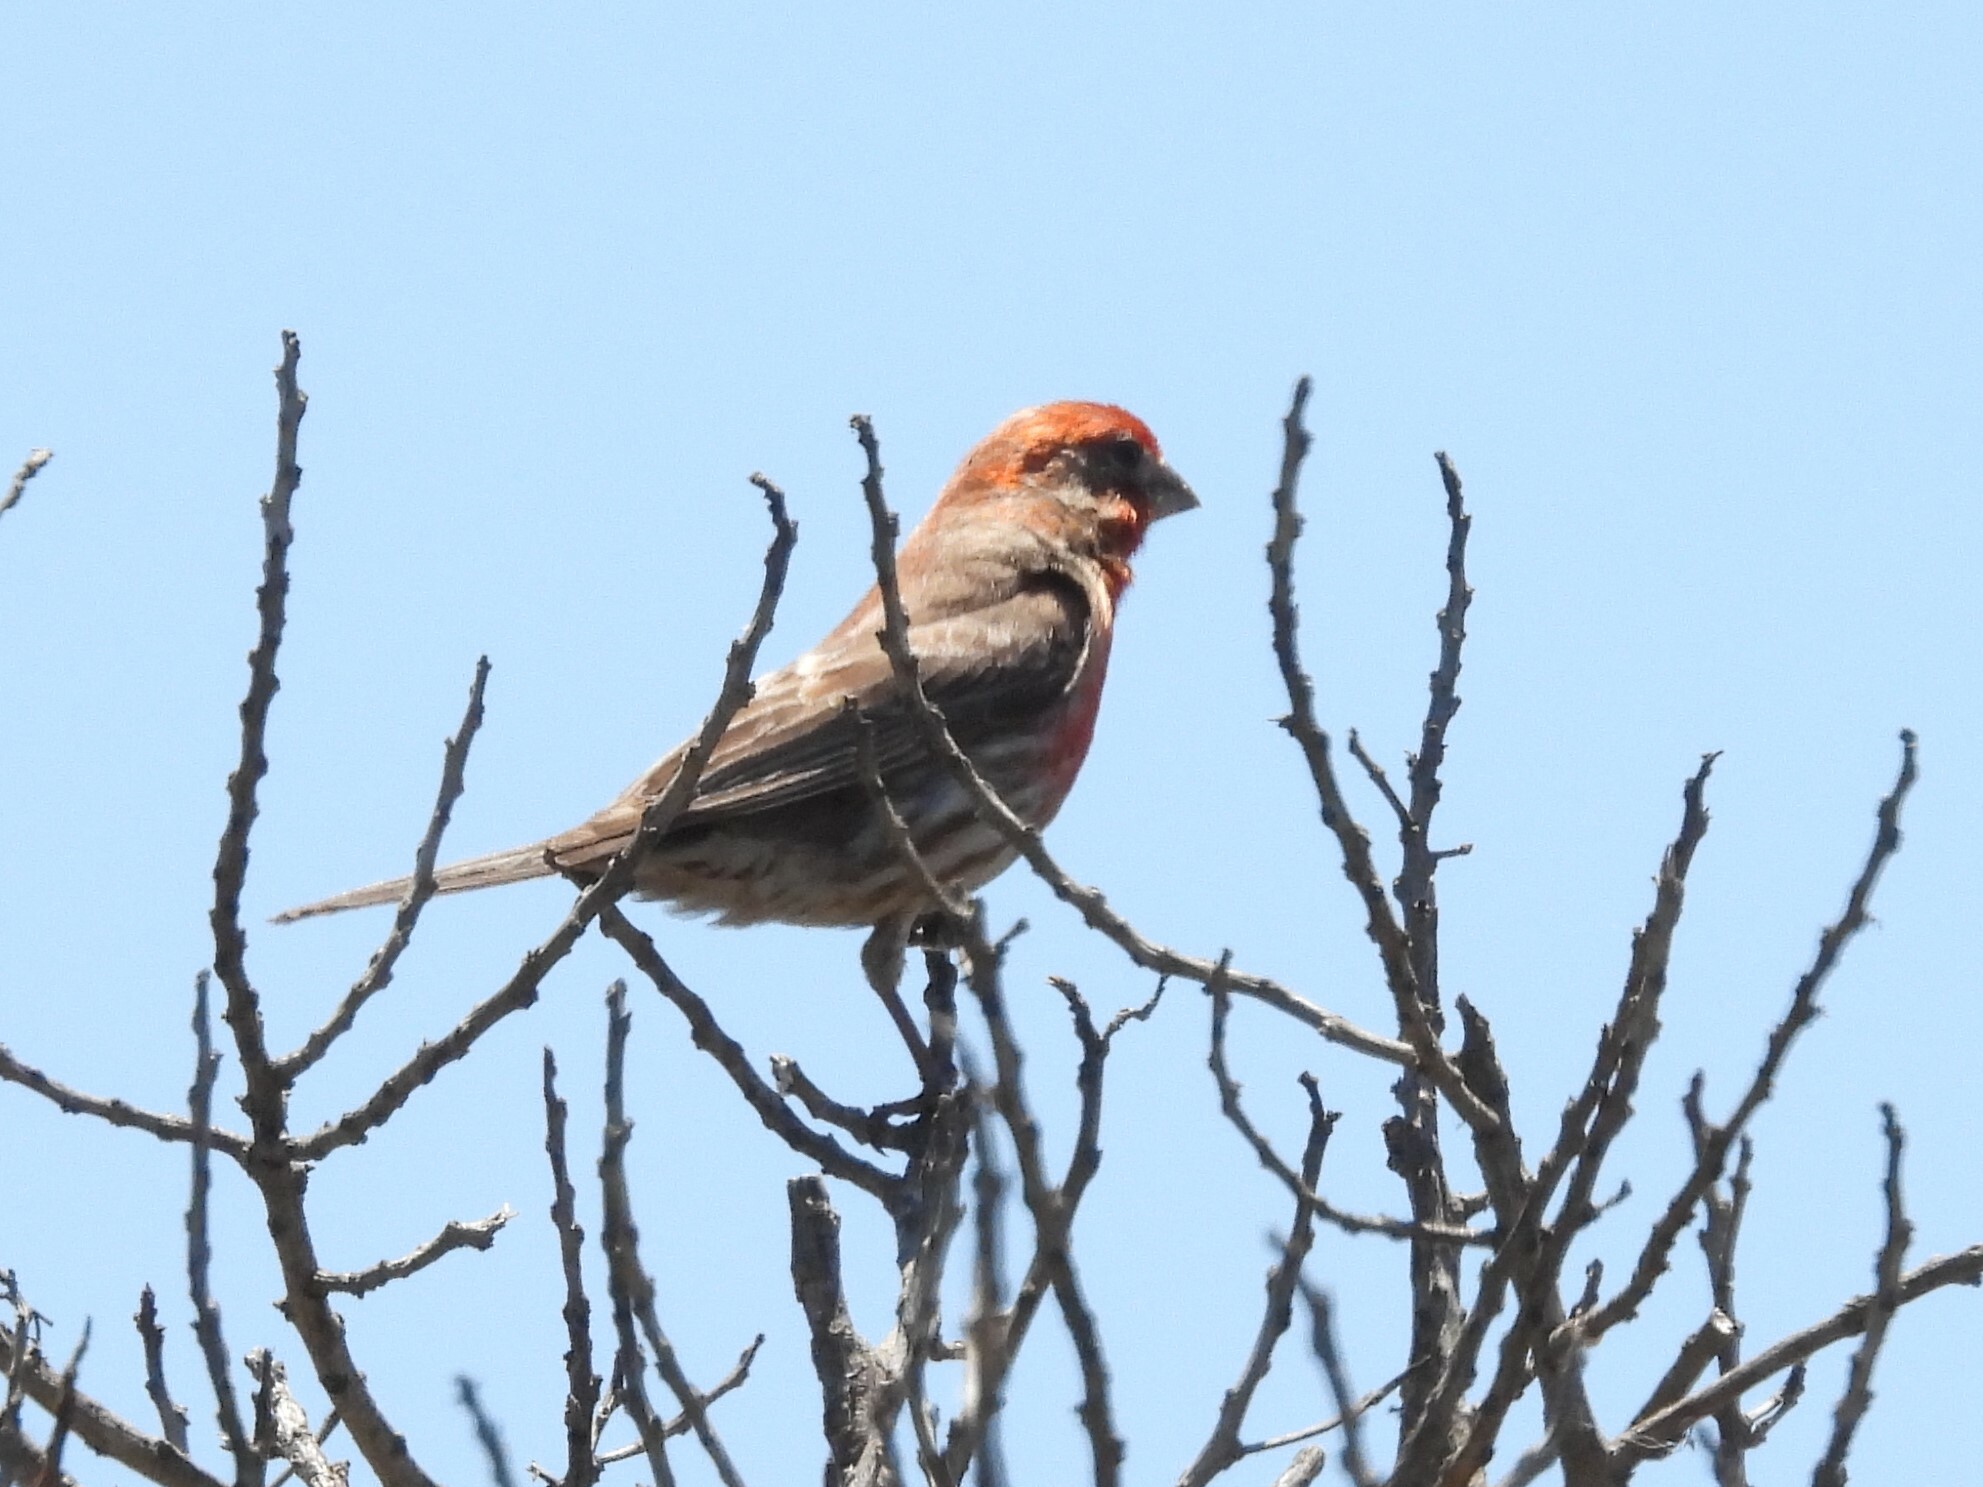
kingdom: Animalia
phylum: Chordata
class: Aves
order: Passeriformes
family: Fringillidae
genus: Haemorhous
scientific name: Haemorhous mexicanus
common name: House finch
